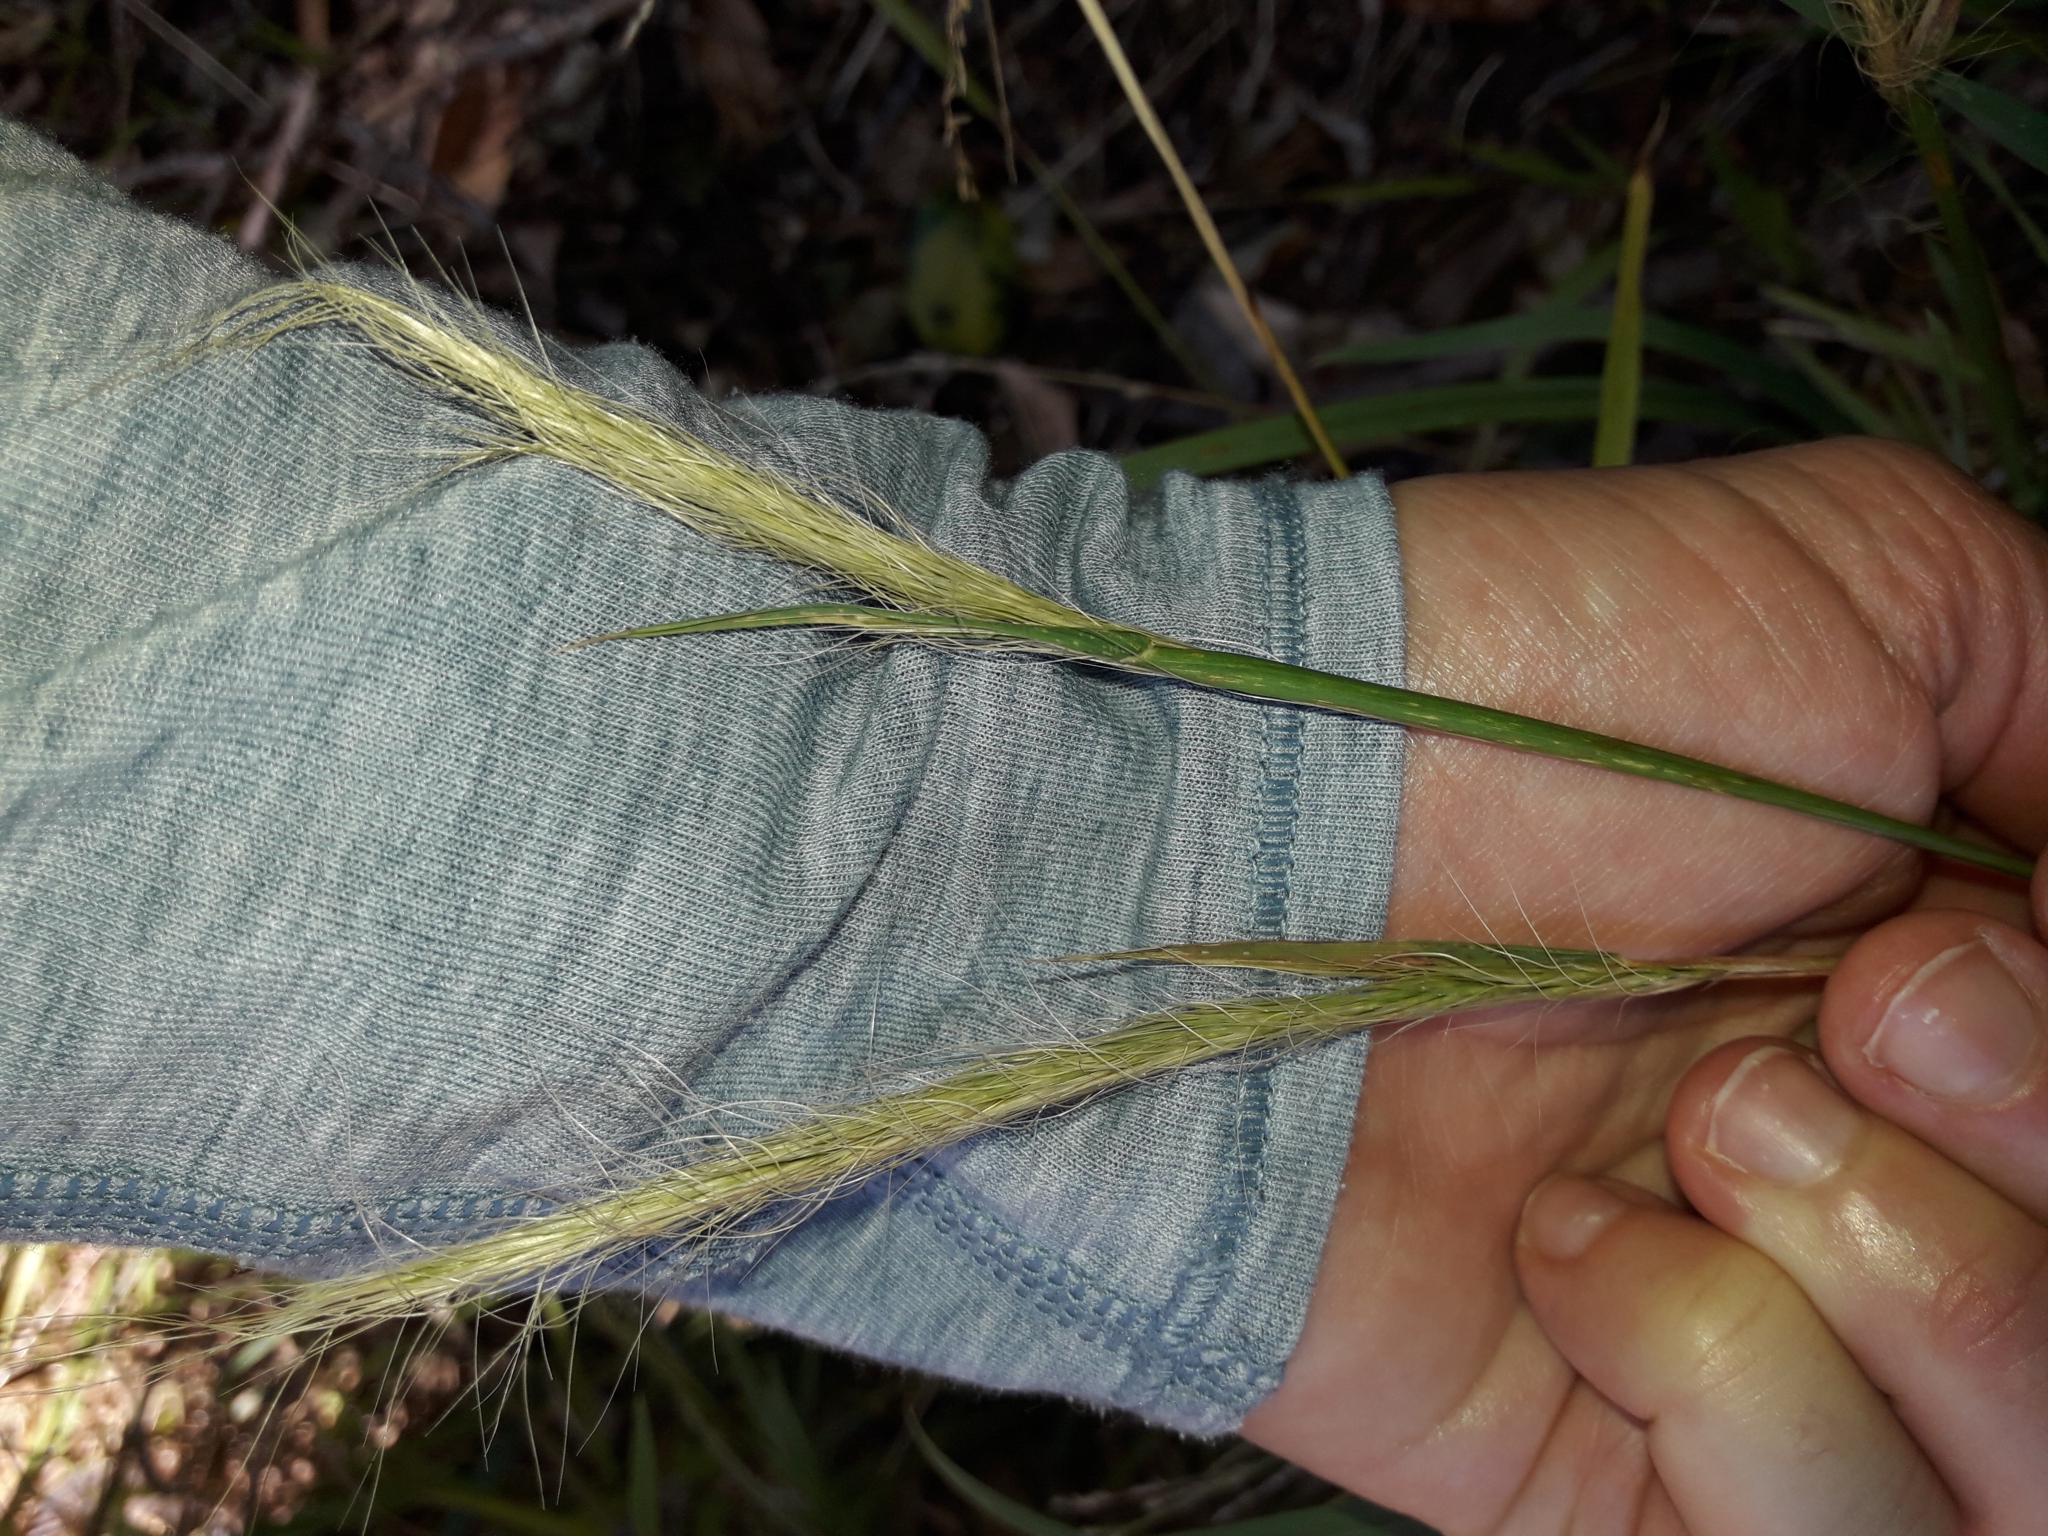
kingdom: Plantae
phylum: Tracheophyta
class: Liliopsida
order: Poales
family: Poaceae
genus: Dichelachne
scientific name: Dichelachne crinita
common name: Clovenfoot plumegrass
